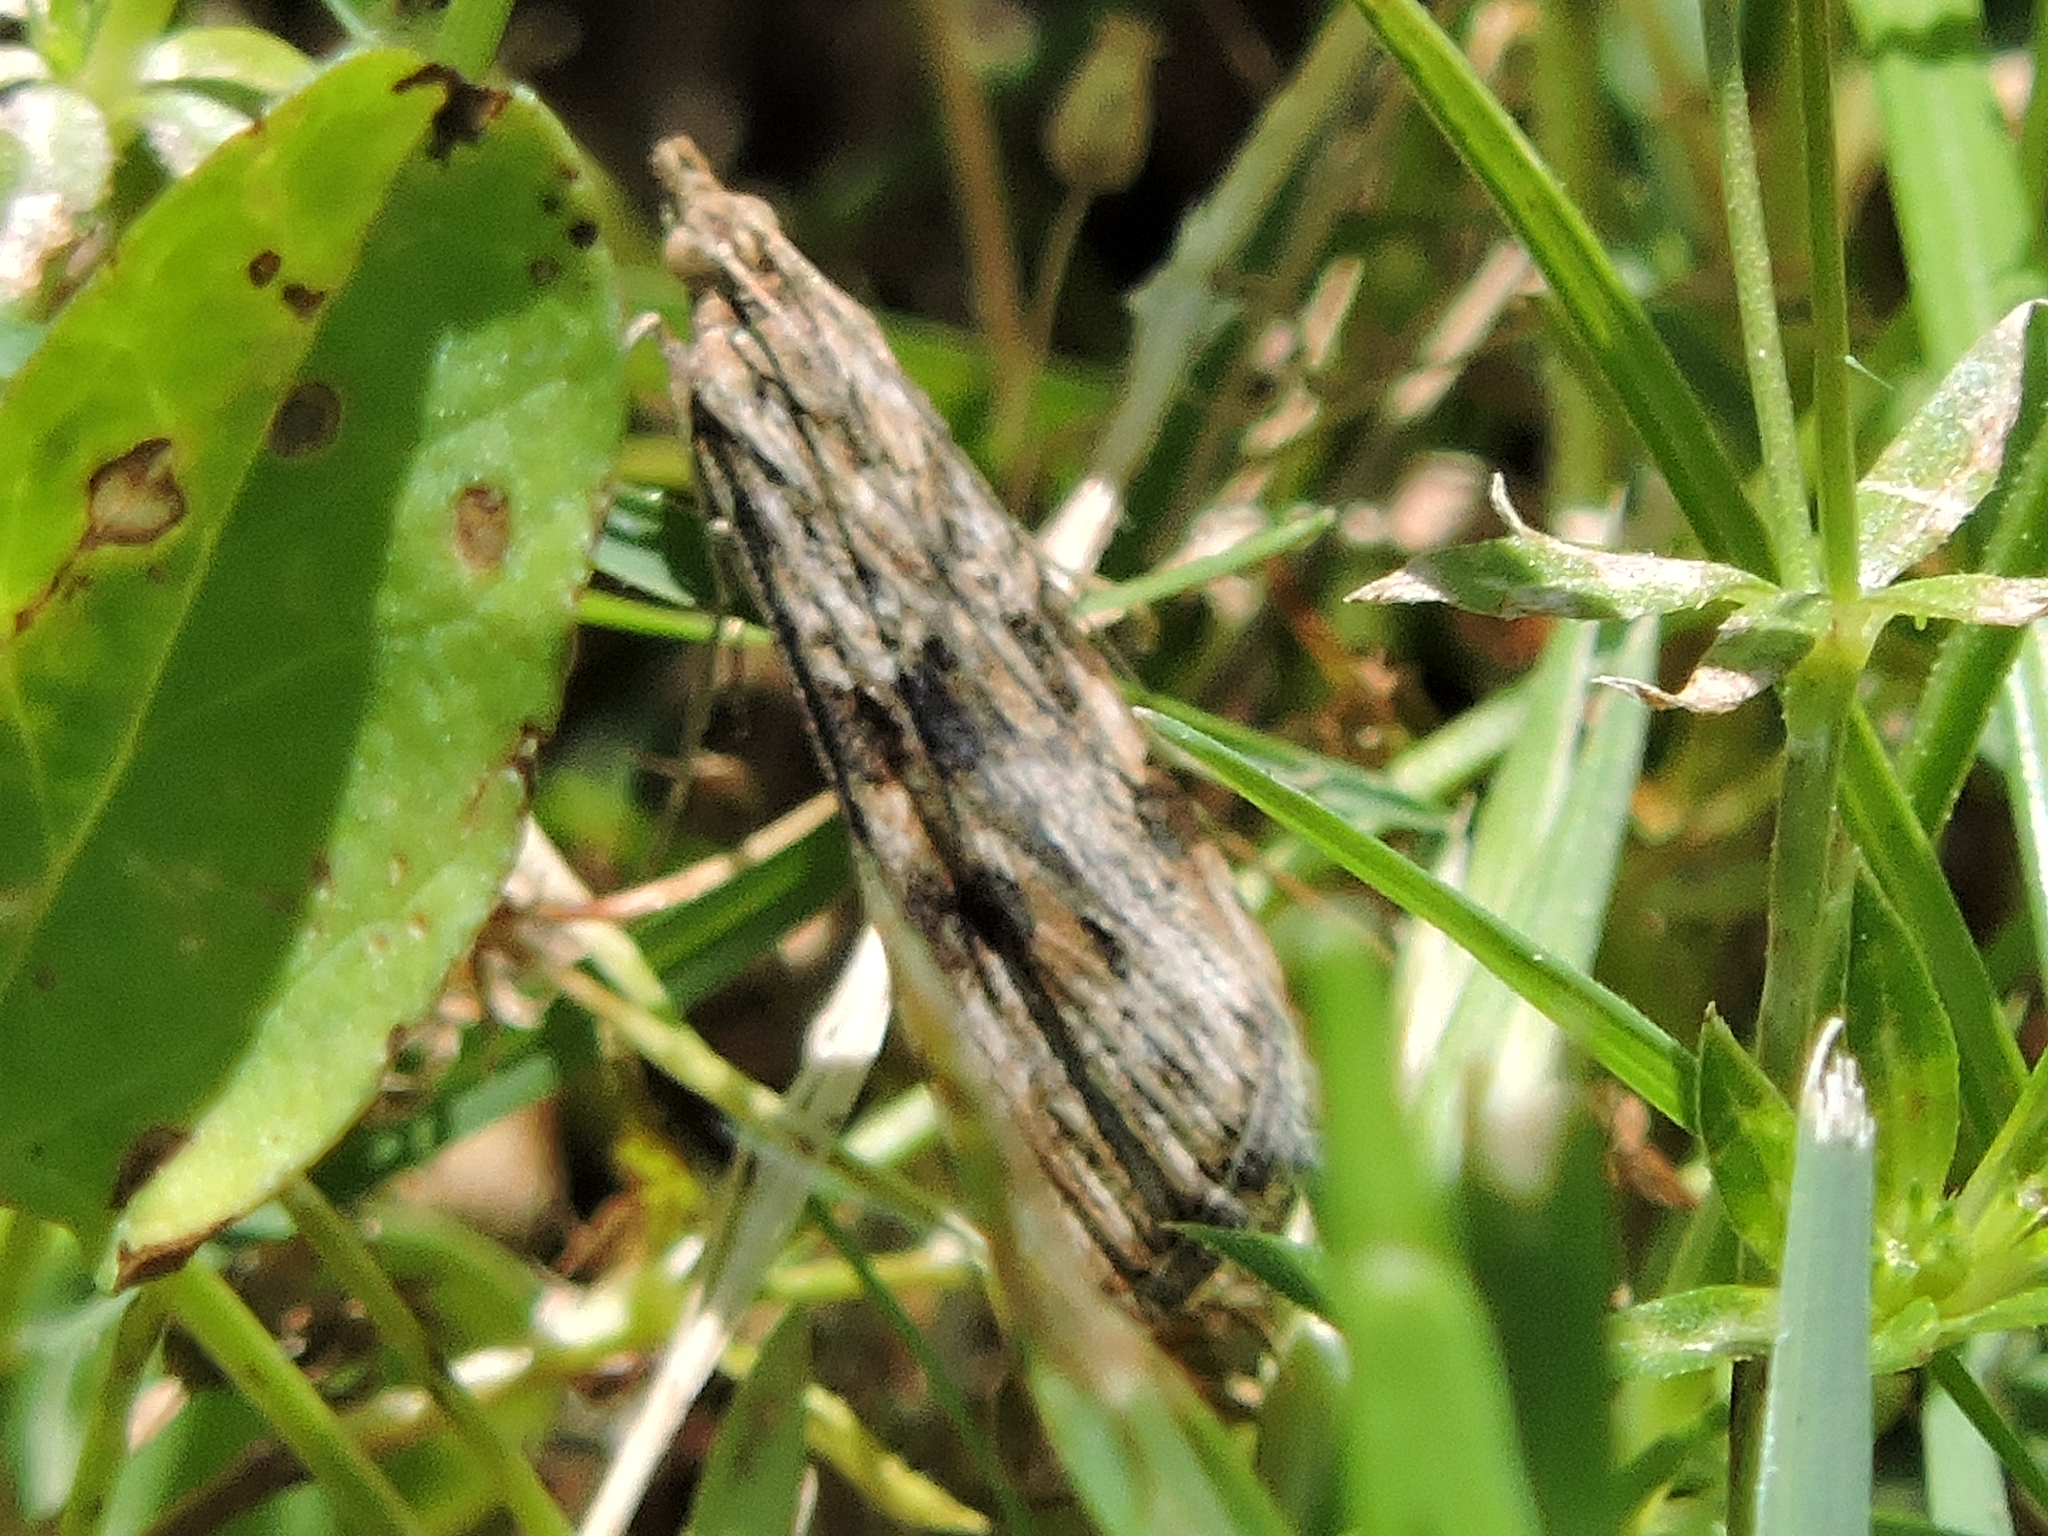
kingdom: Animalia
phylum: Arthropoda
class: Insecta
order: Lepidoptera
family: Crambidae
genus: Nomophila
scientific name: Nomophila nearctica
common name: American rush veneer
